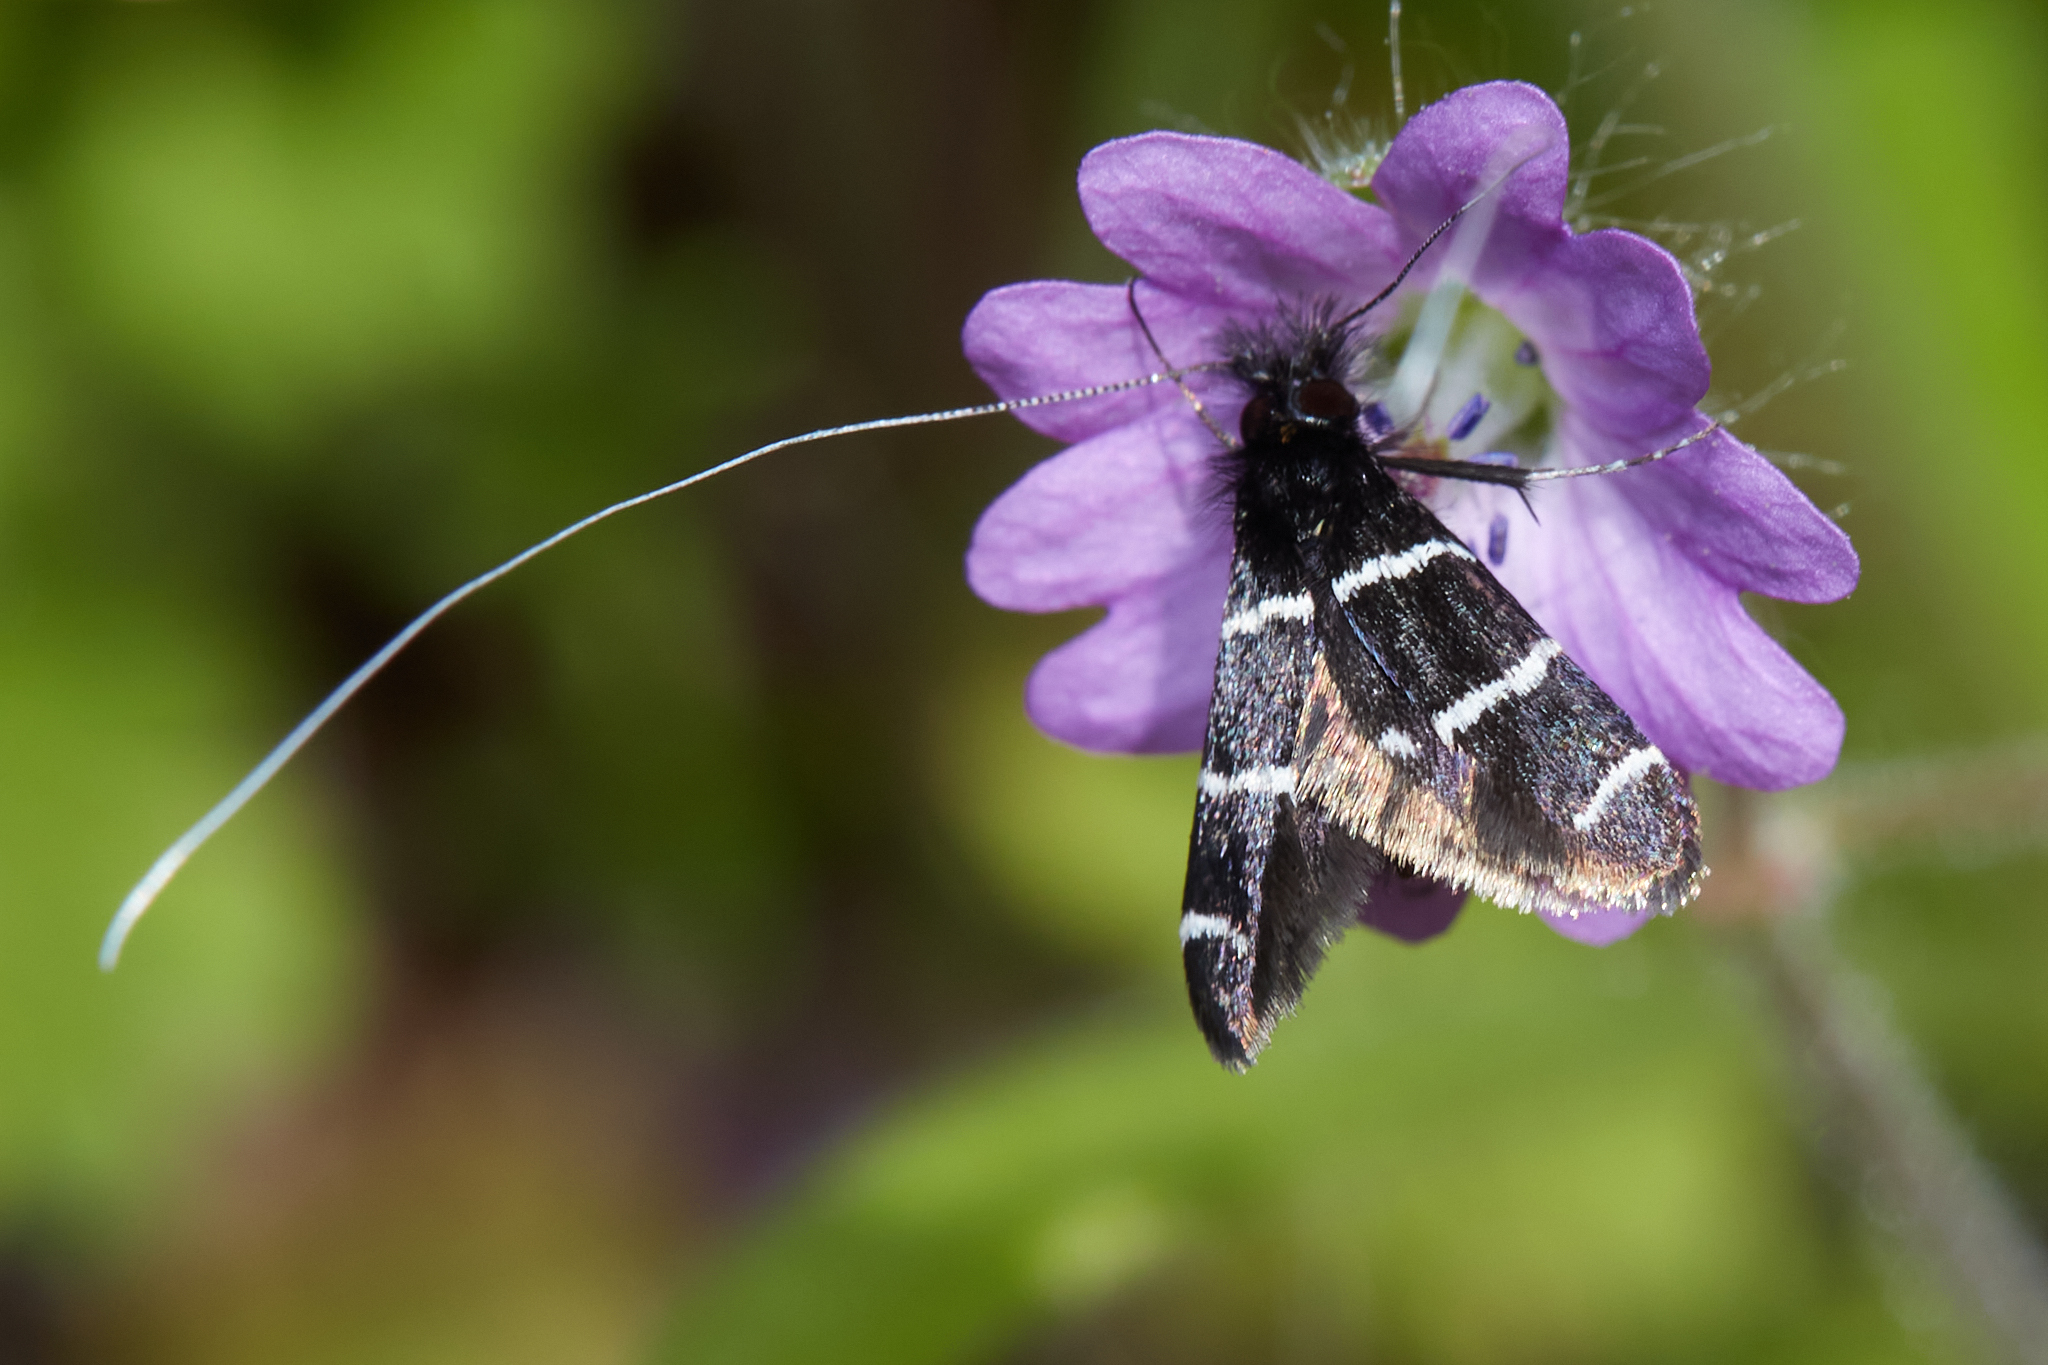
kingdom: Animalia
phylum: Arthropoda
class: Insecta
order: Lepidoptera
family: Adelidae
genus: Adela
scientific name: Adela trigrapha
